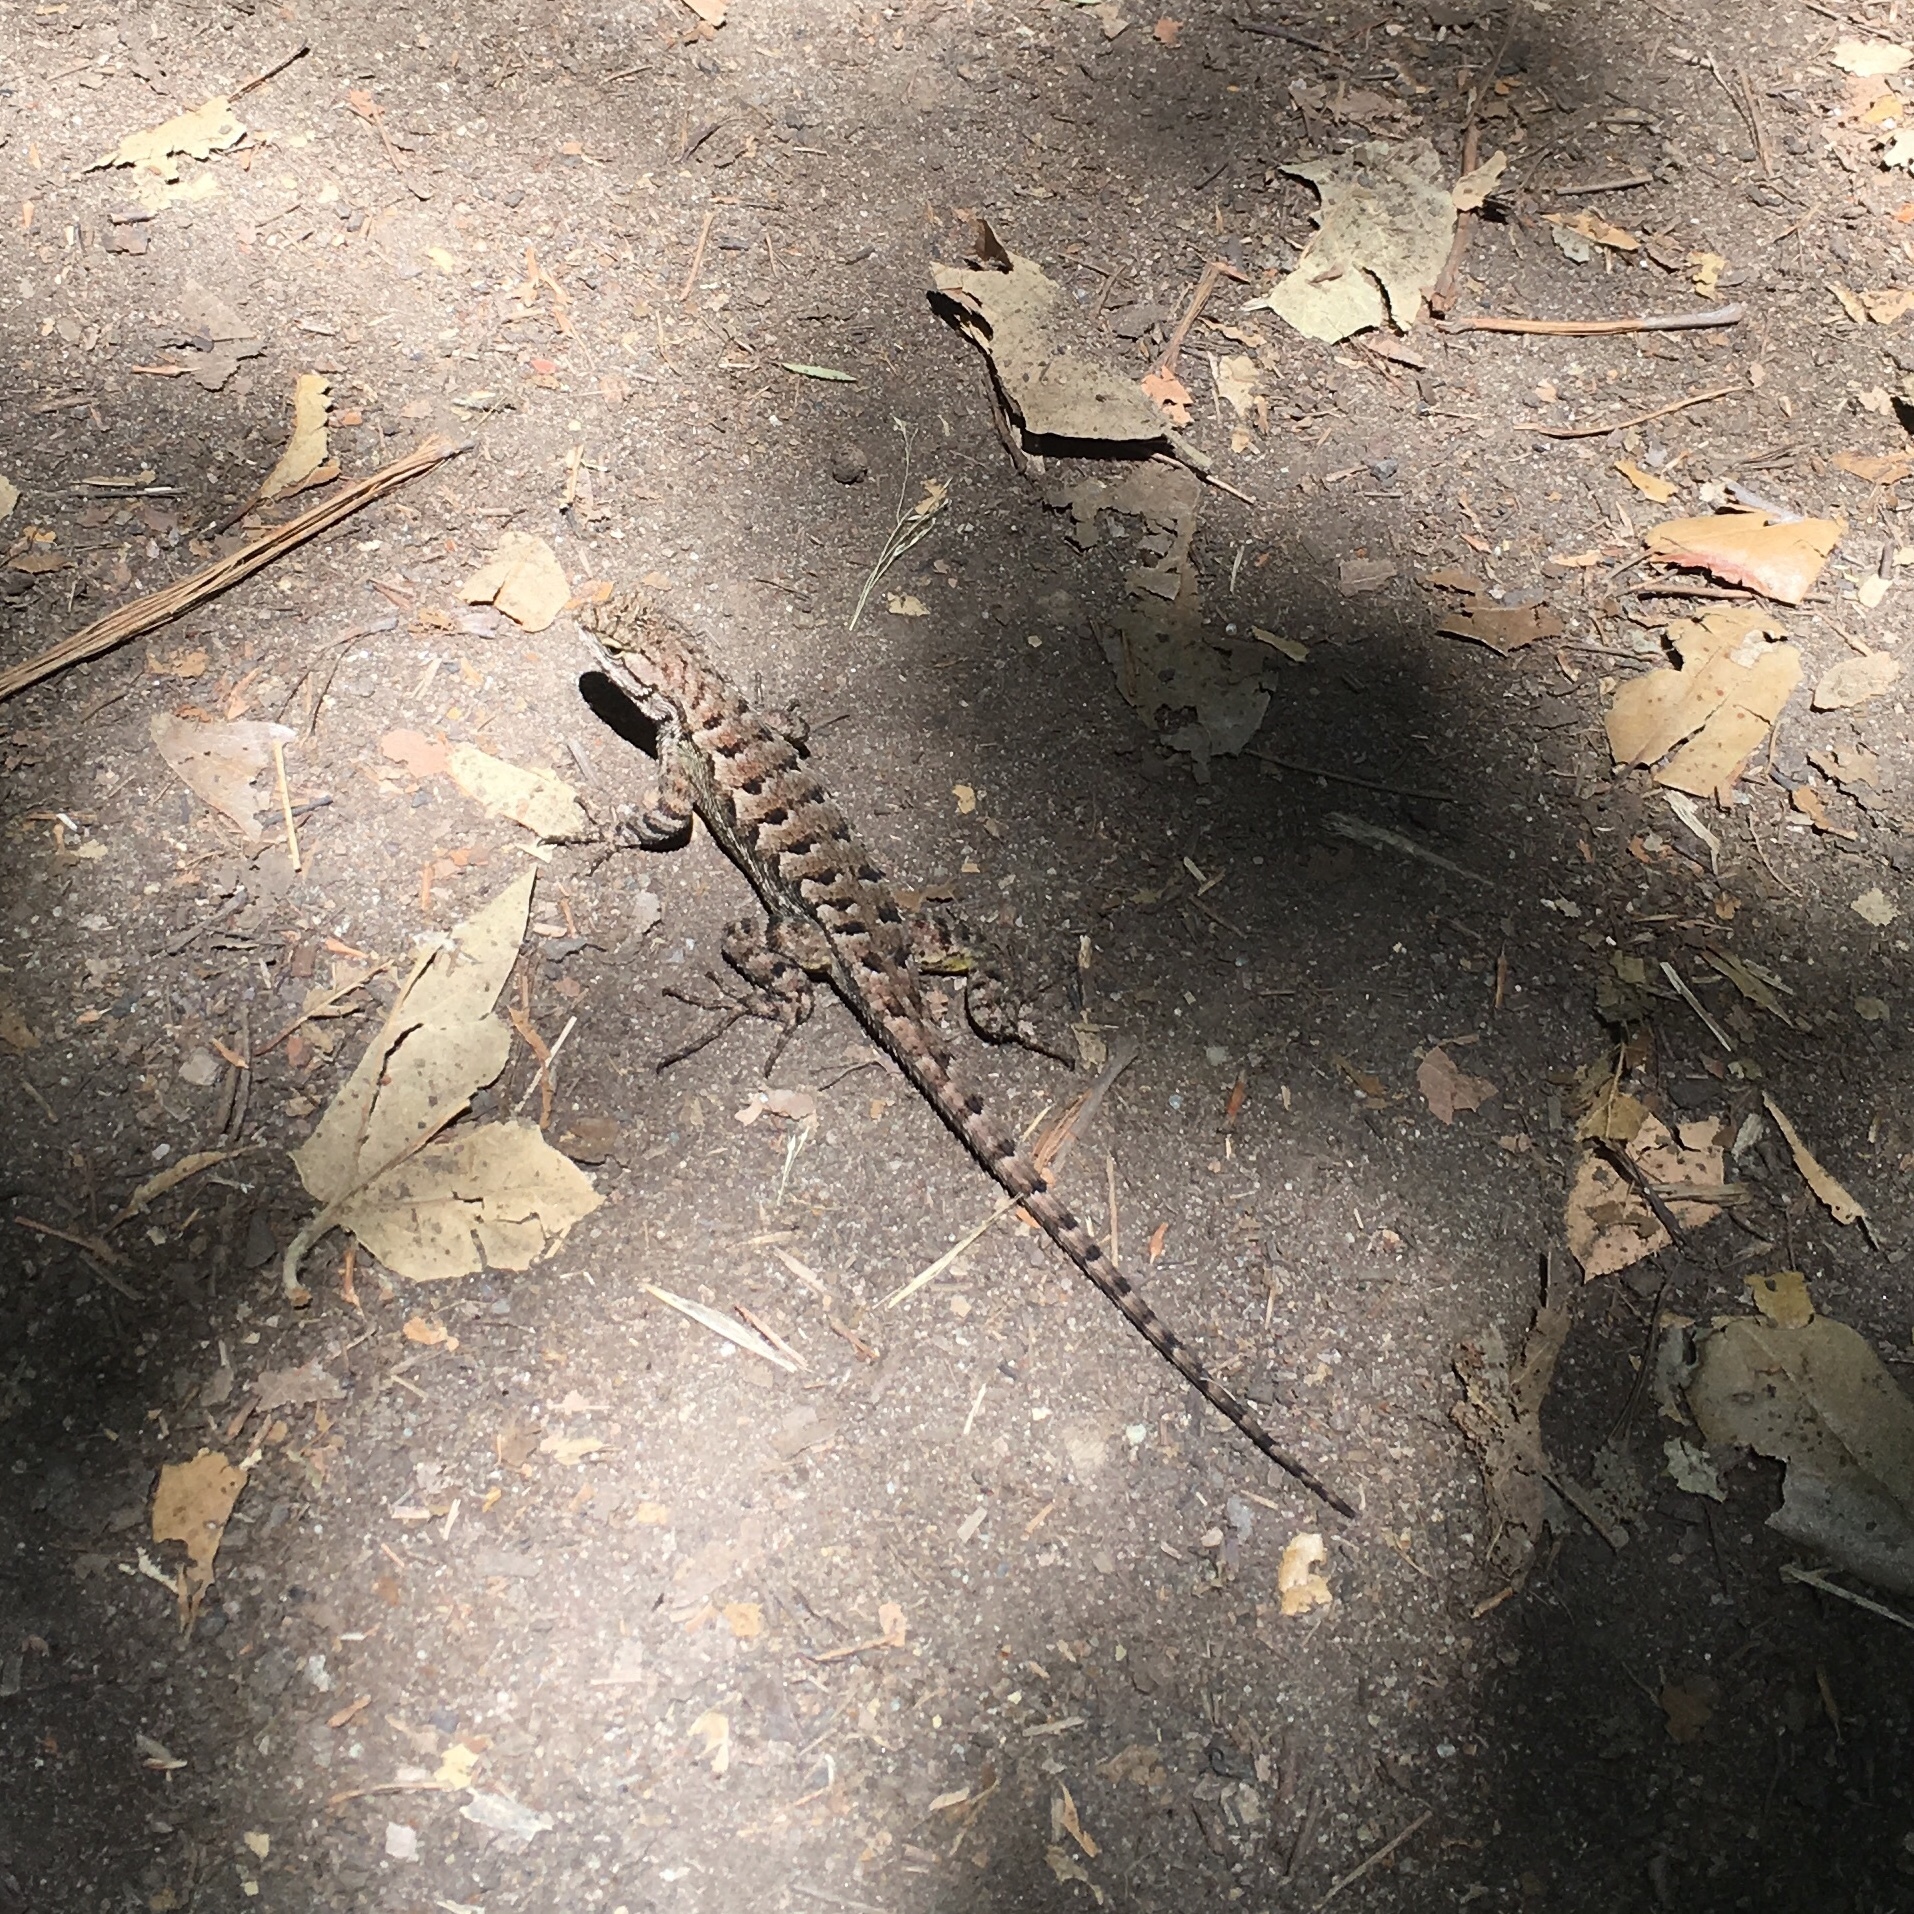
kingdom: Animalia
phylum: Chordata
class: Squamata
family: Phrynosomatidae
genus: Sceloporus
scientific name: Sceloporus occidentalis
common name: Western fence lizard
